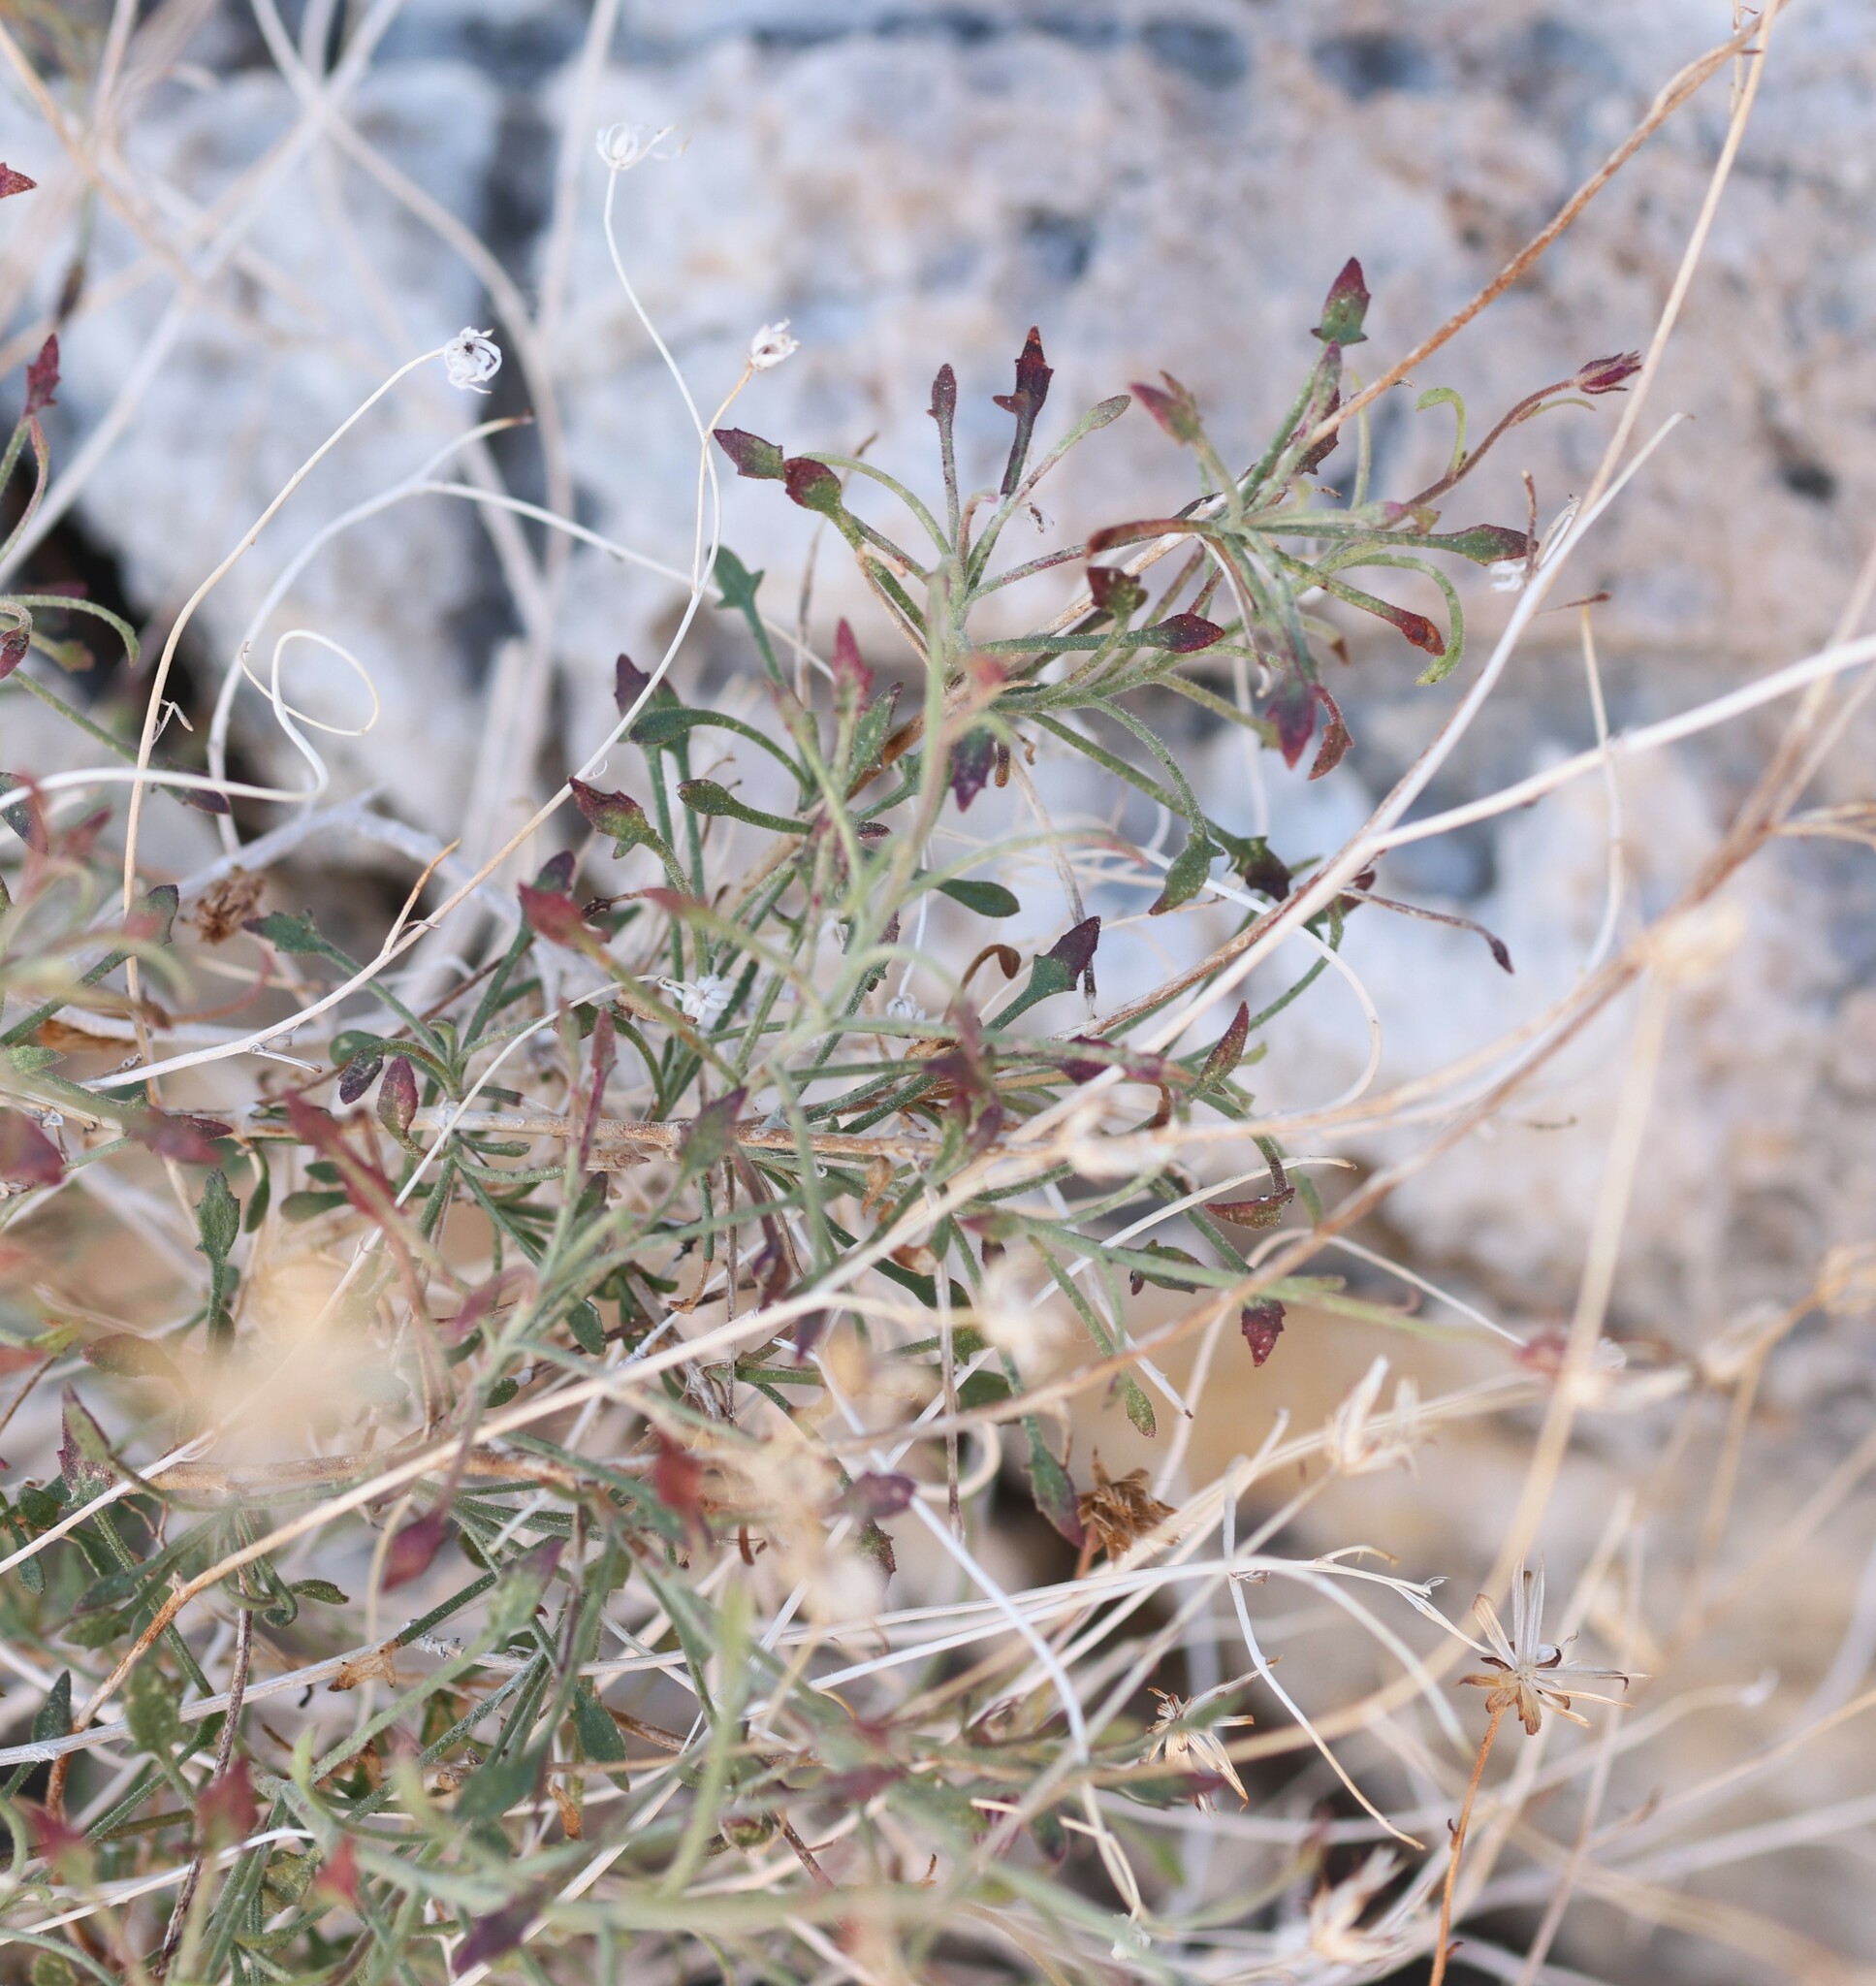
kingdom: Plantae
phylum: Tracheophyta
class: Magnoliopsida
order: Asterales
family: Asteraceae
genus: Pleurocoronis
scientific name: Pleurocoronis pluriseta
